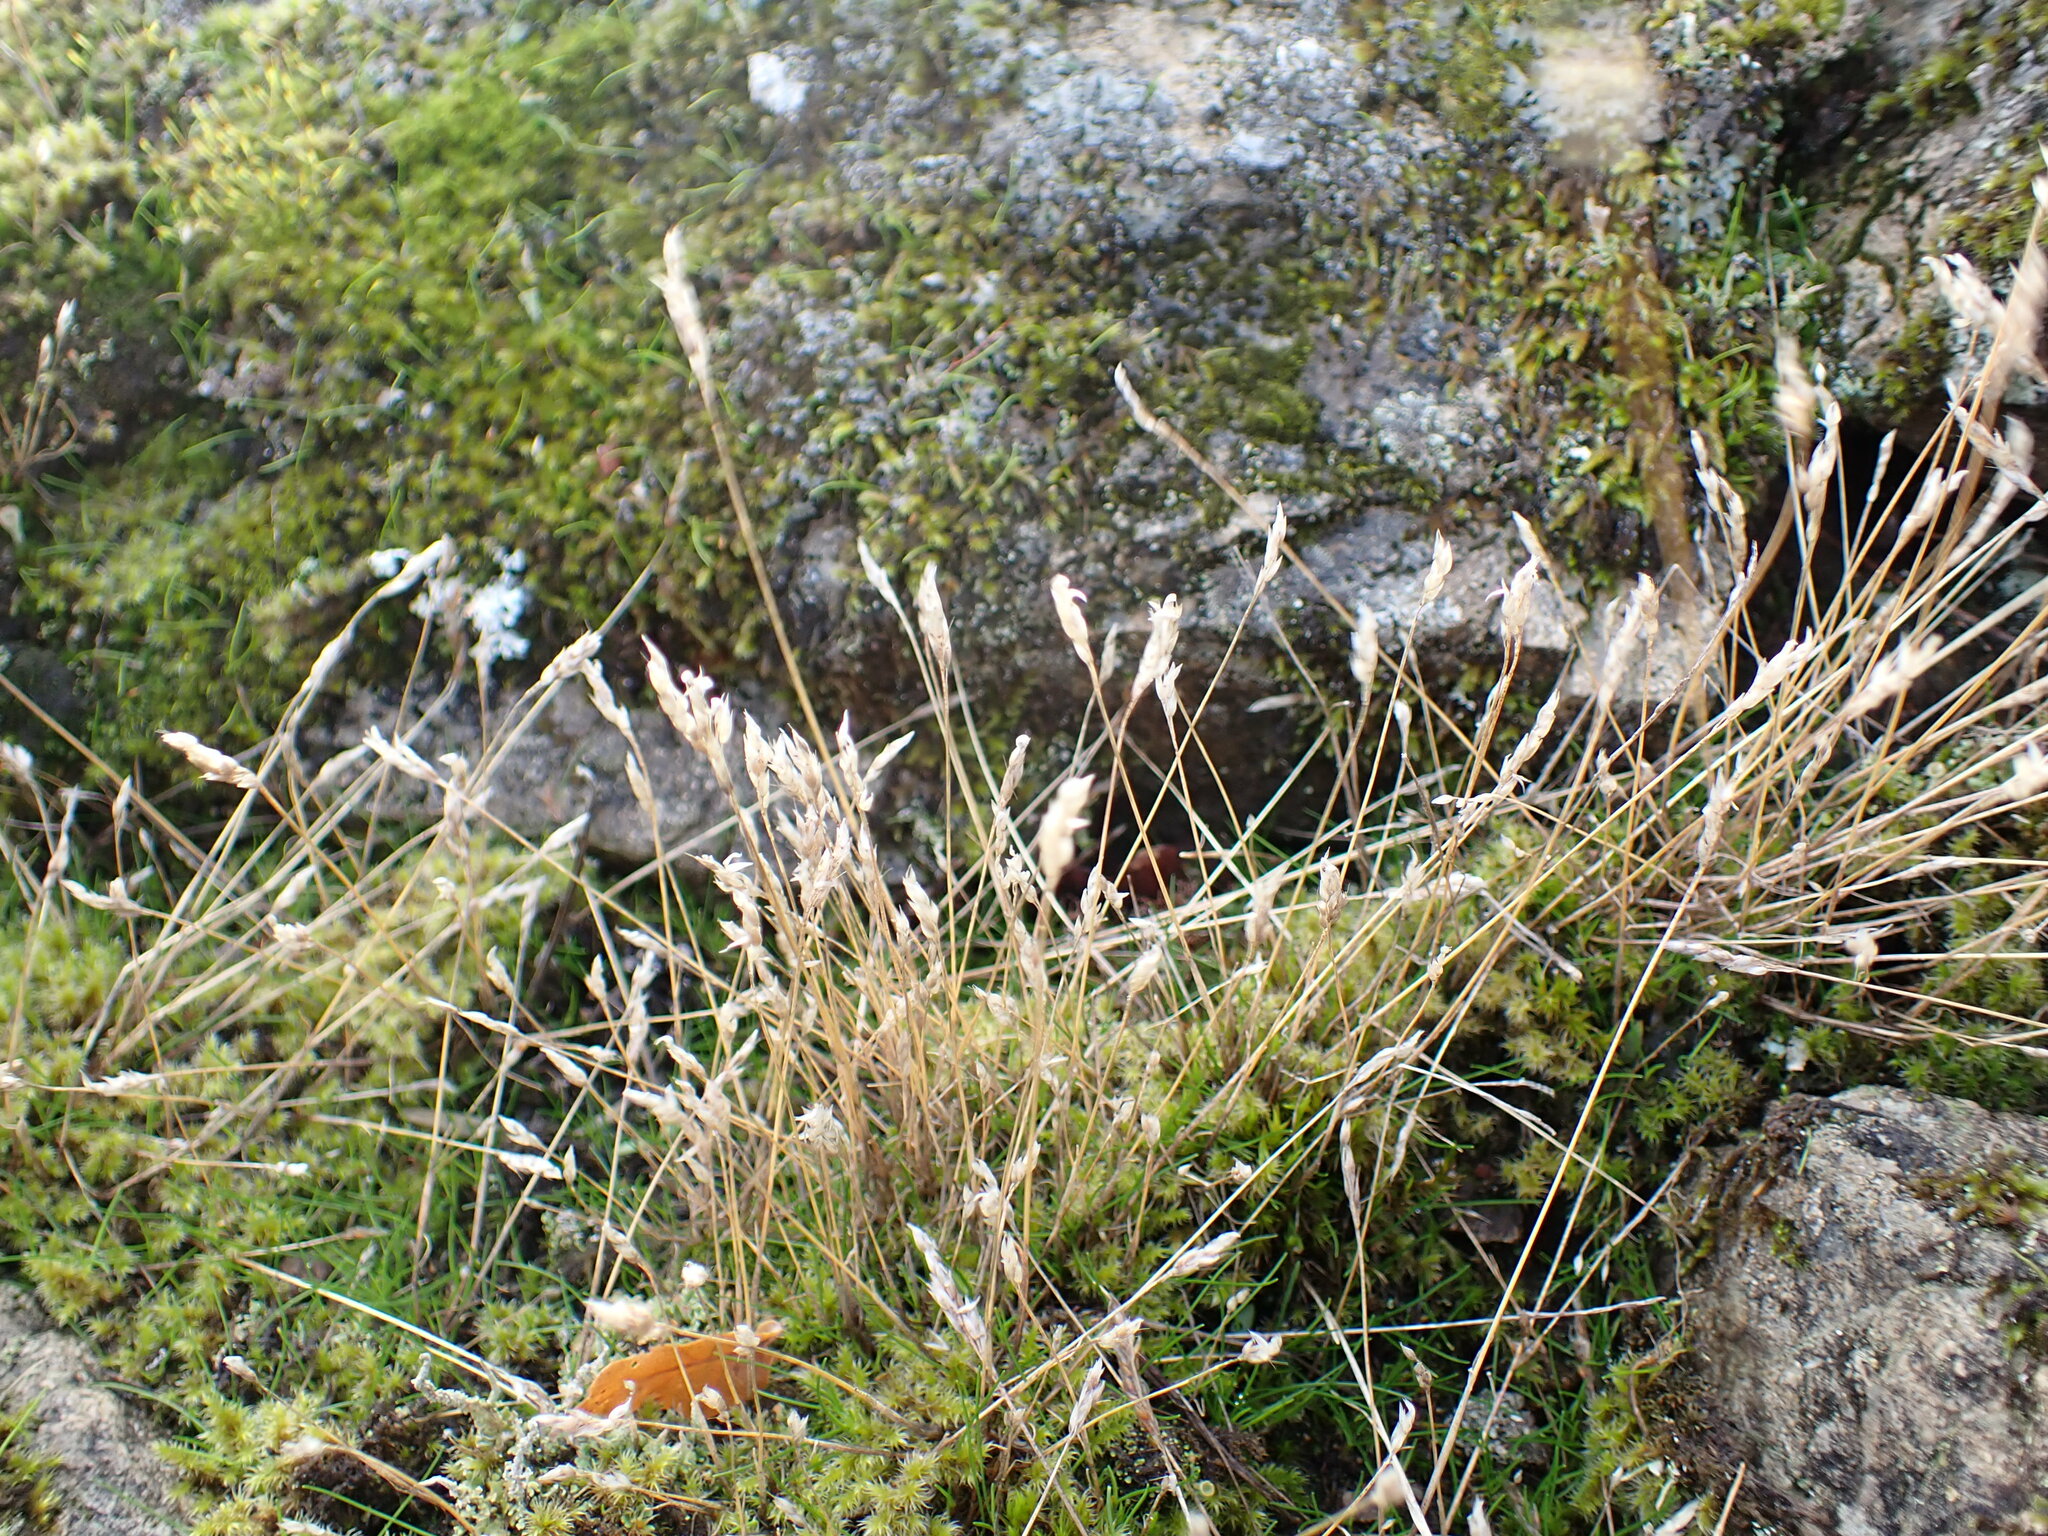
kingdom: Plantae
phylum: Tracheophyta
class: Liliopsida
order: Poales
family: Poaceae
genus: Aira
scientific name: Aira praecox
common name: Early hair-grass
